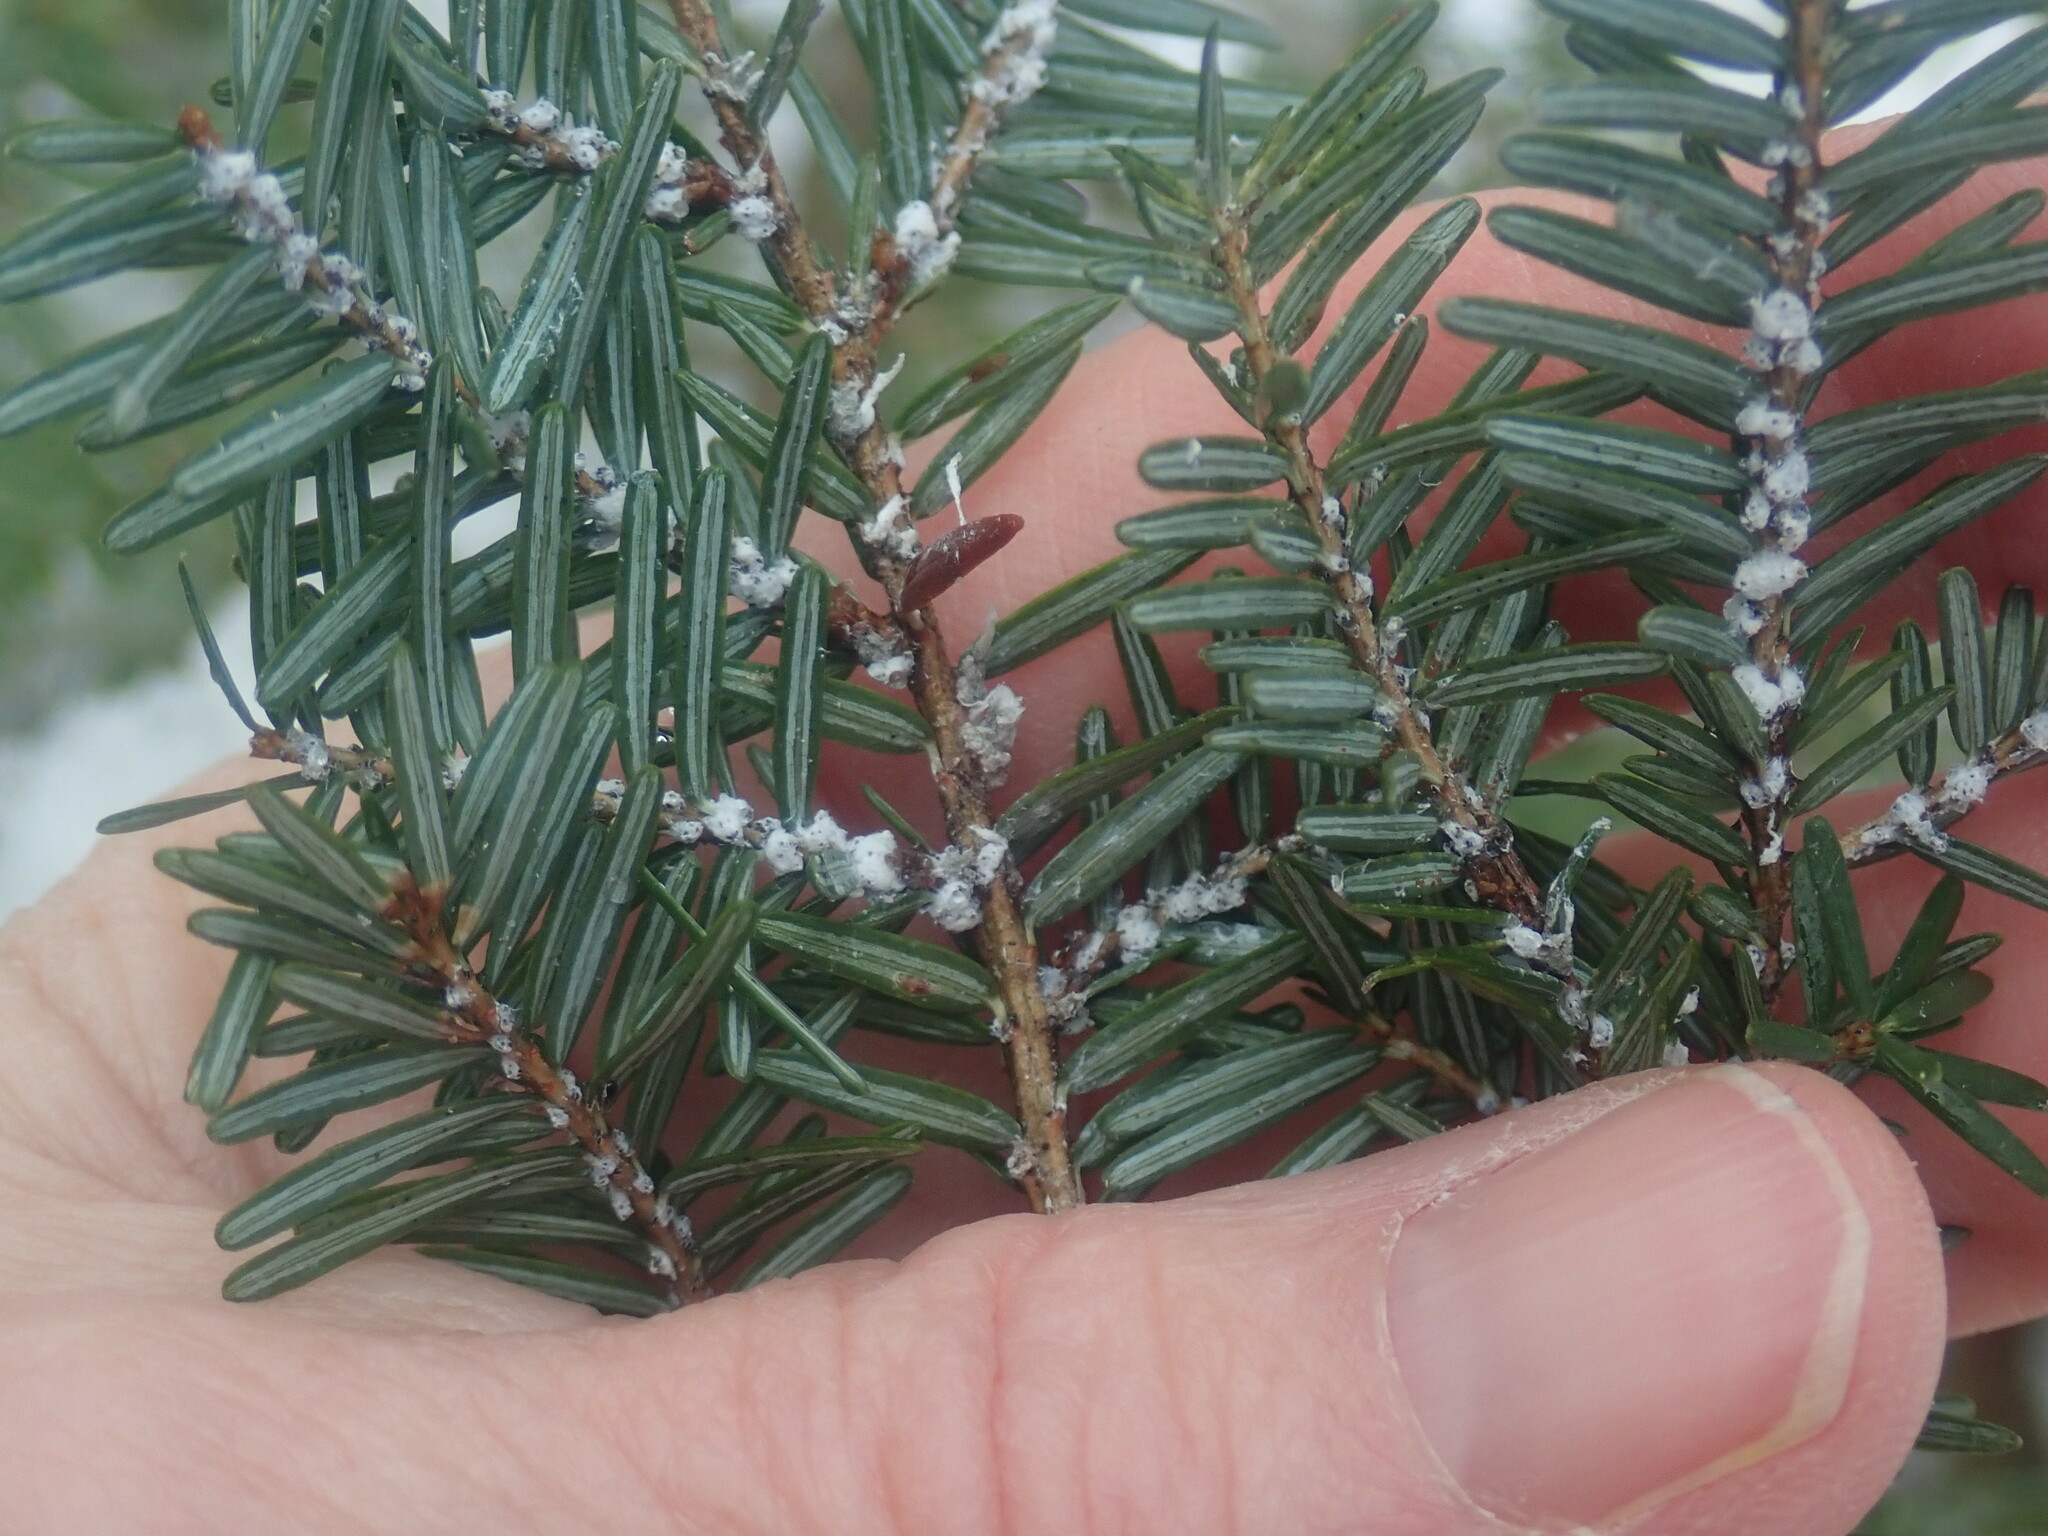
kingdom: Animalia
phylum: Arthropoda
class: Insecta
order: Hemiptera
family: Adelgidae
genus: Adelges
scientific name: Adelges tsugae
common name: Hemlock woolly adelgid
